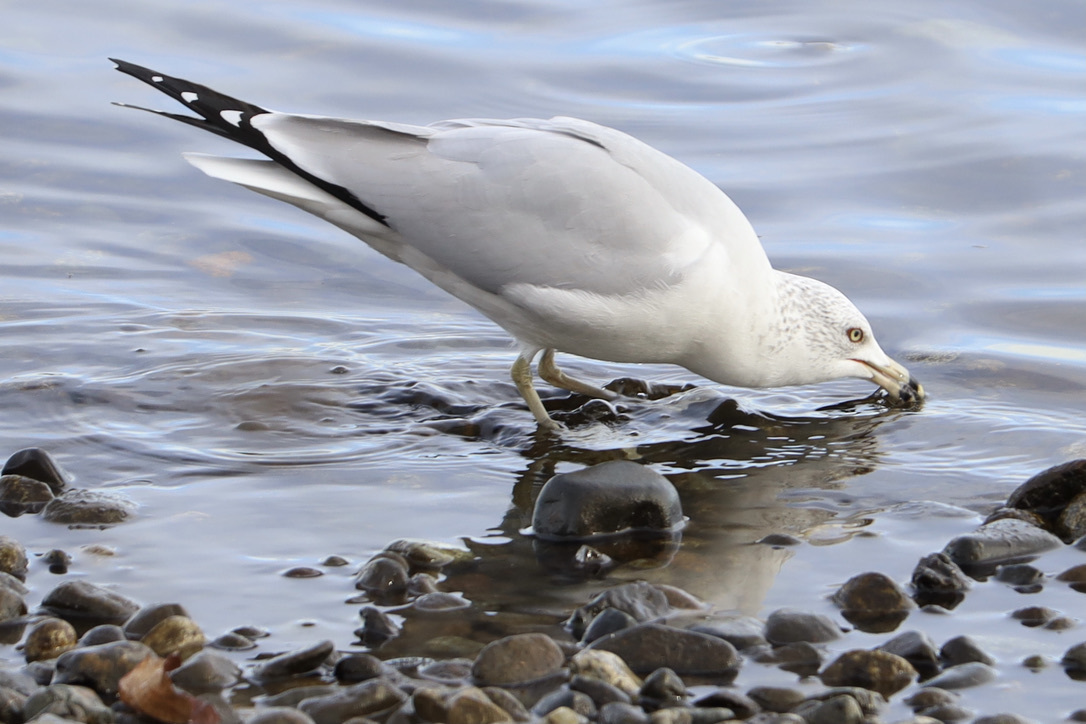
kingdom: Animalia
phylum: Chordata
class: Aves
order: Charadriiformes
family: Laridae
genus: Larus
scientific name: Larus delawarensis
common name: Ring-billed gull
